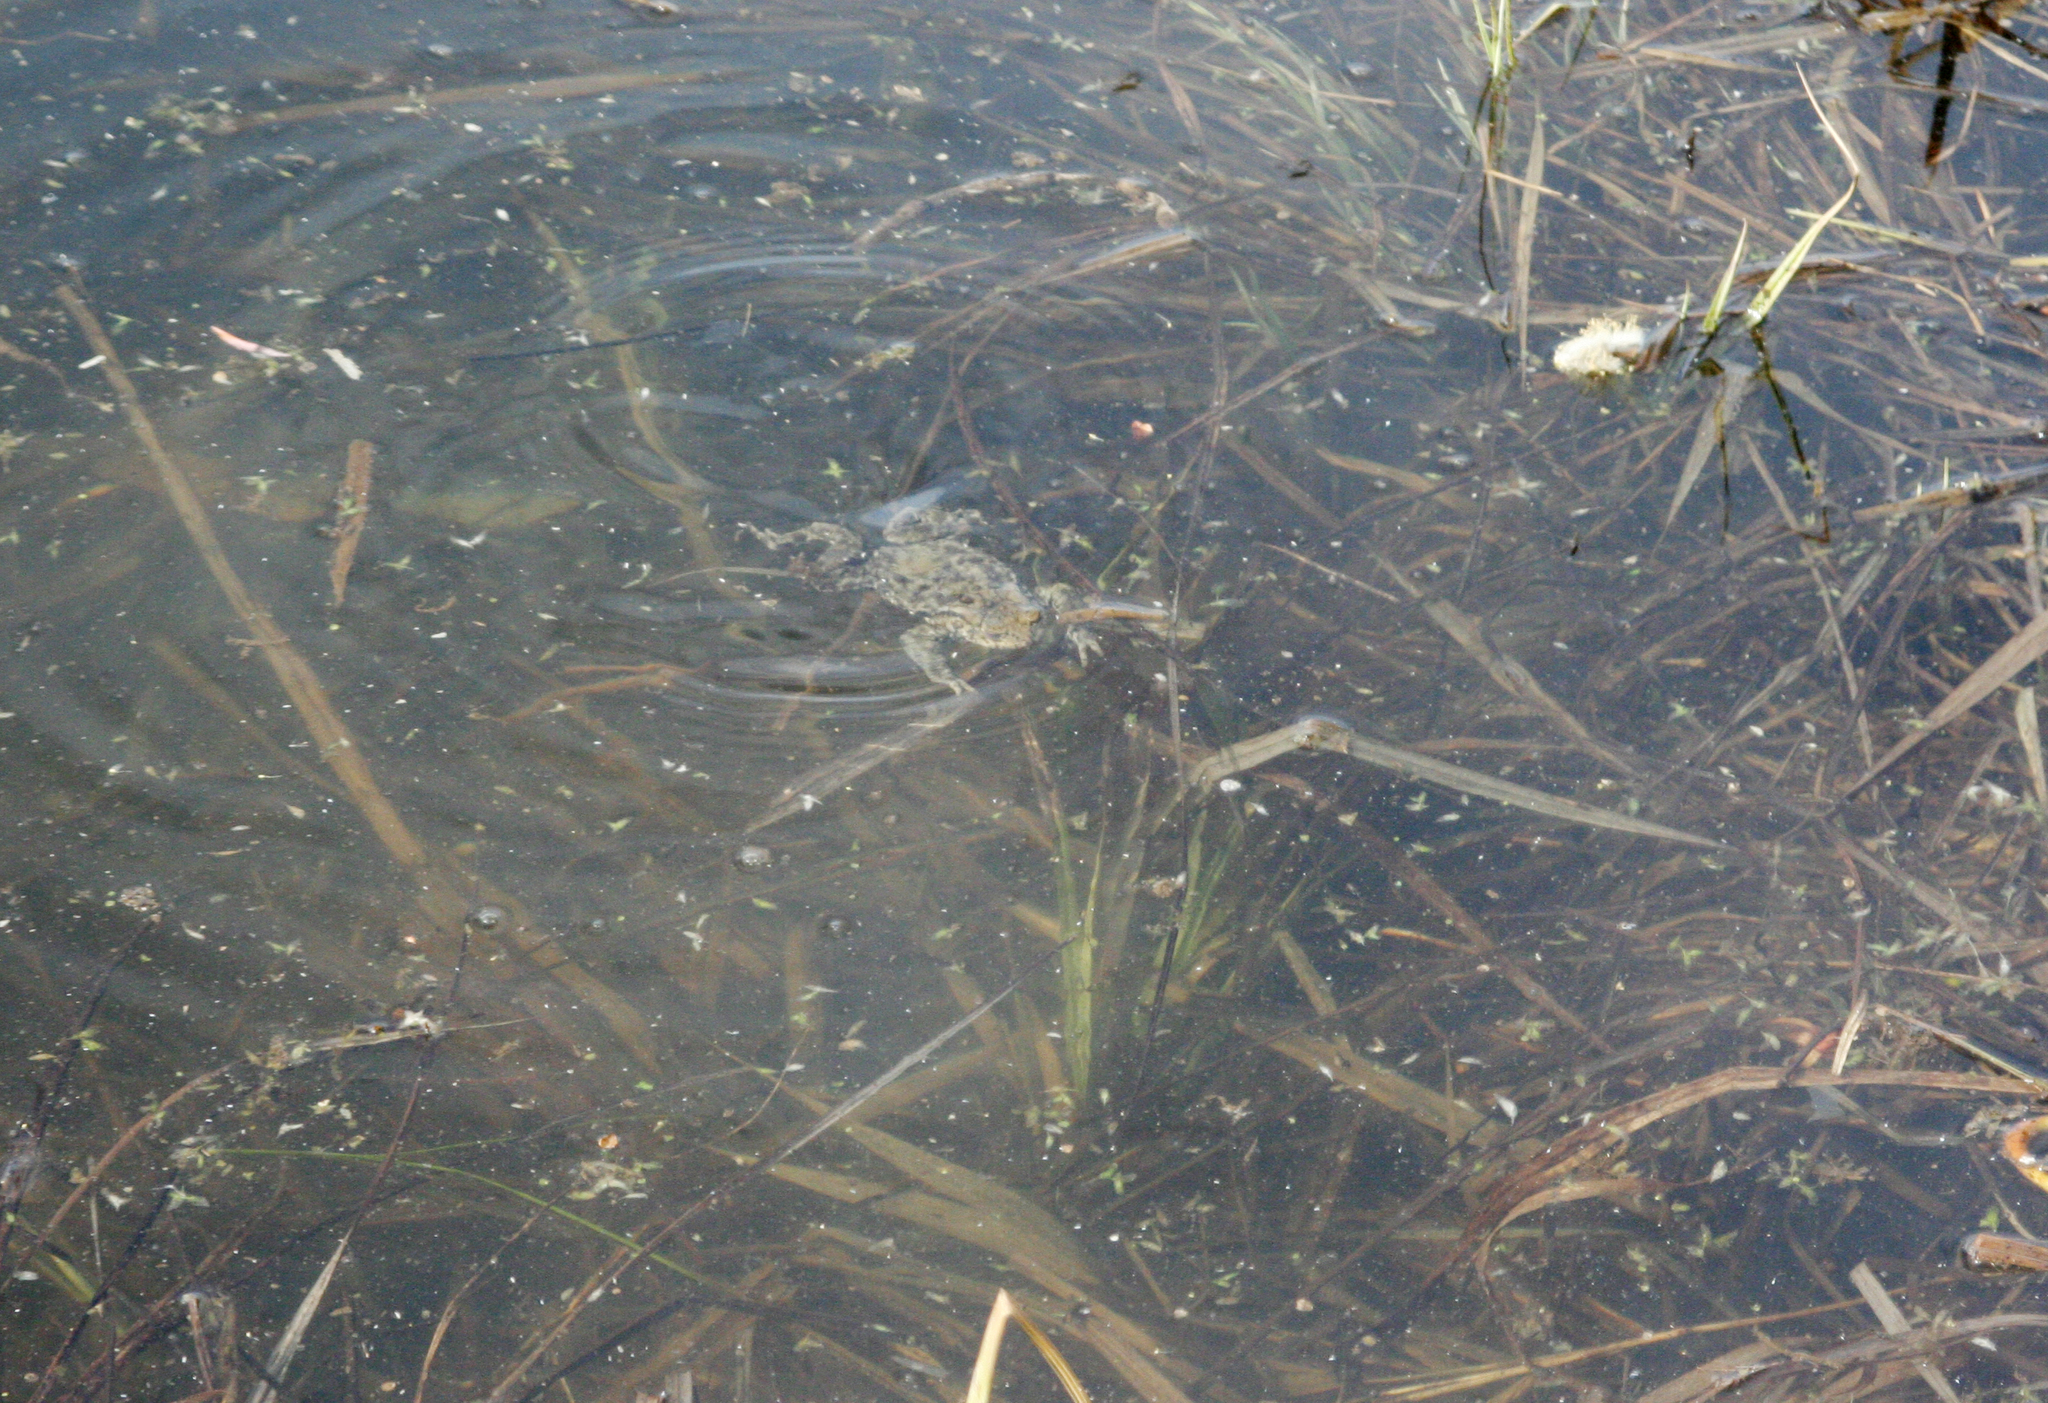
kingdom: Animalia
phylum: Chordata
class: Amphibia
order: Anura
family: Bufonidae
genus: Bufo
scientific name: Bufo bufo
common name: Common toad
